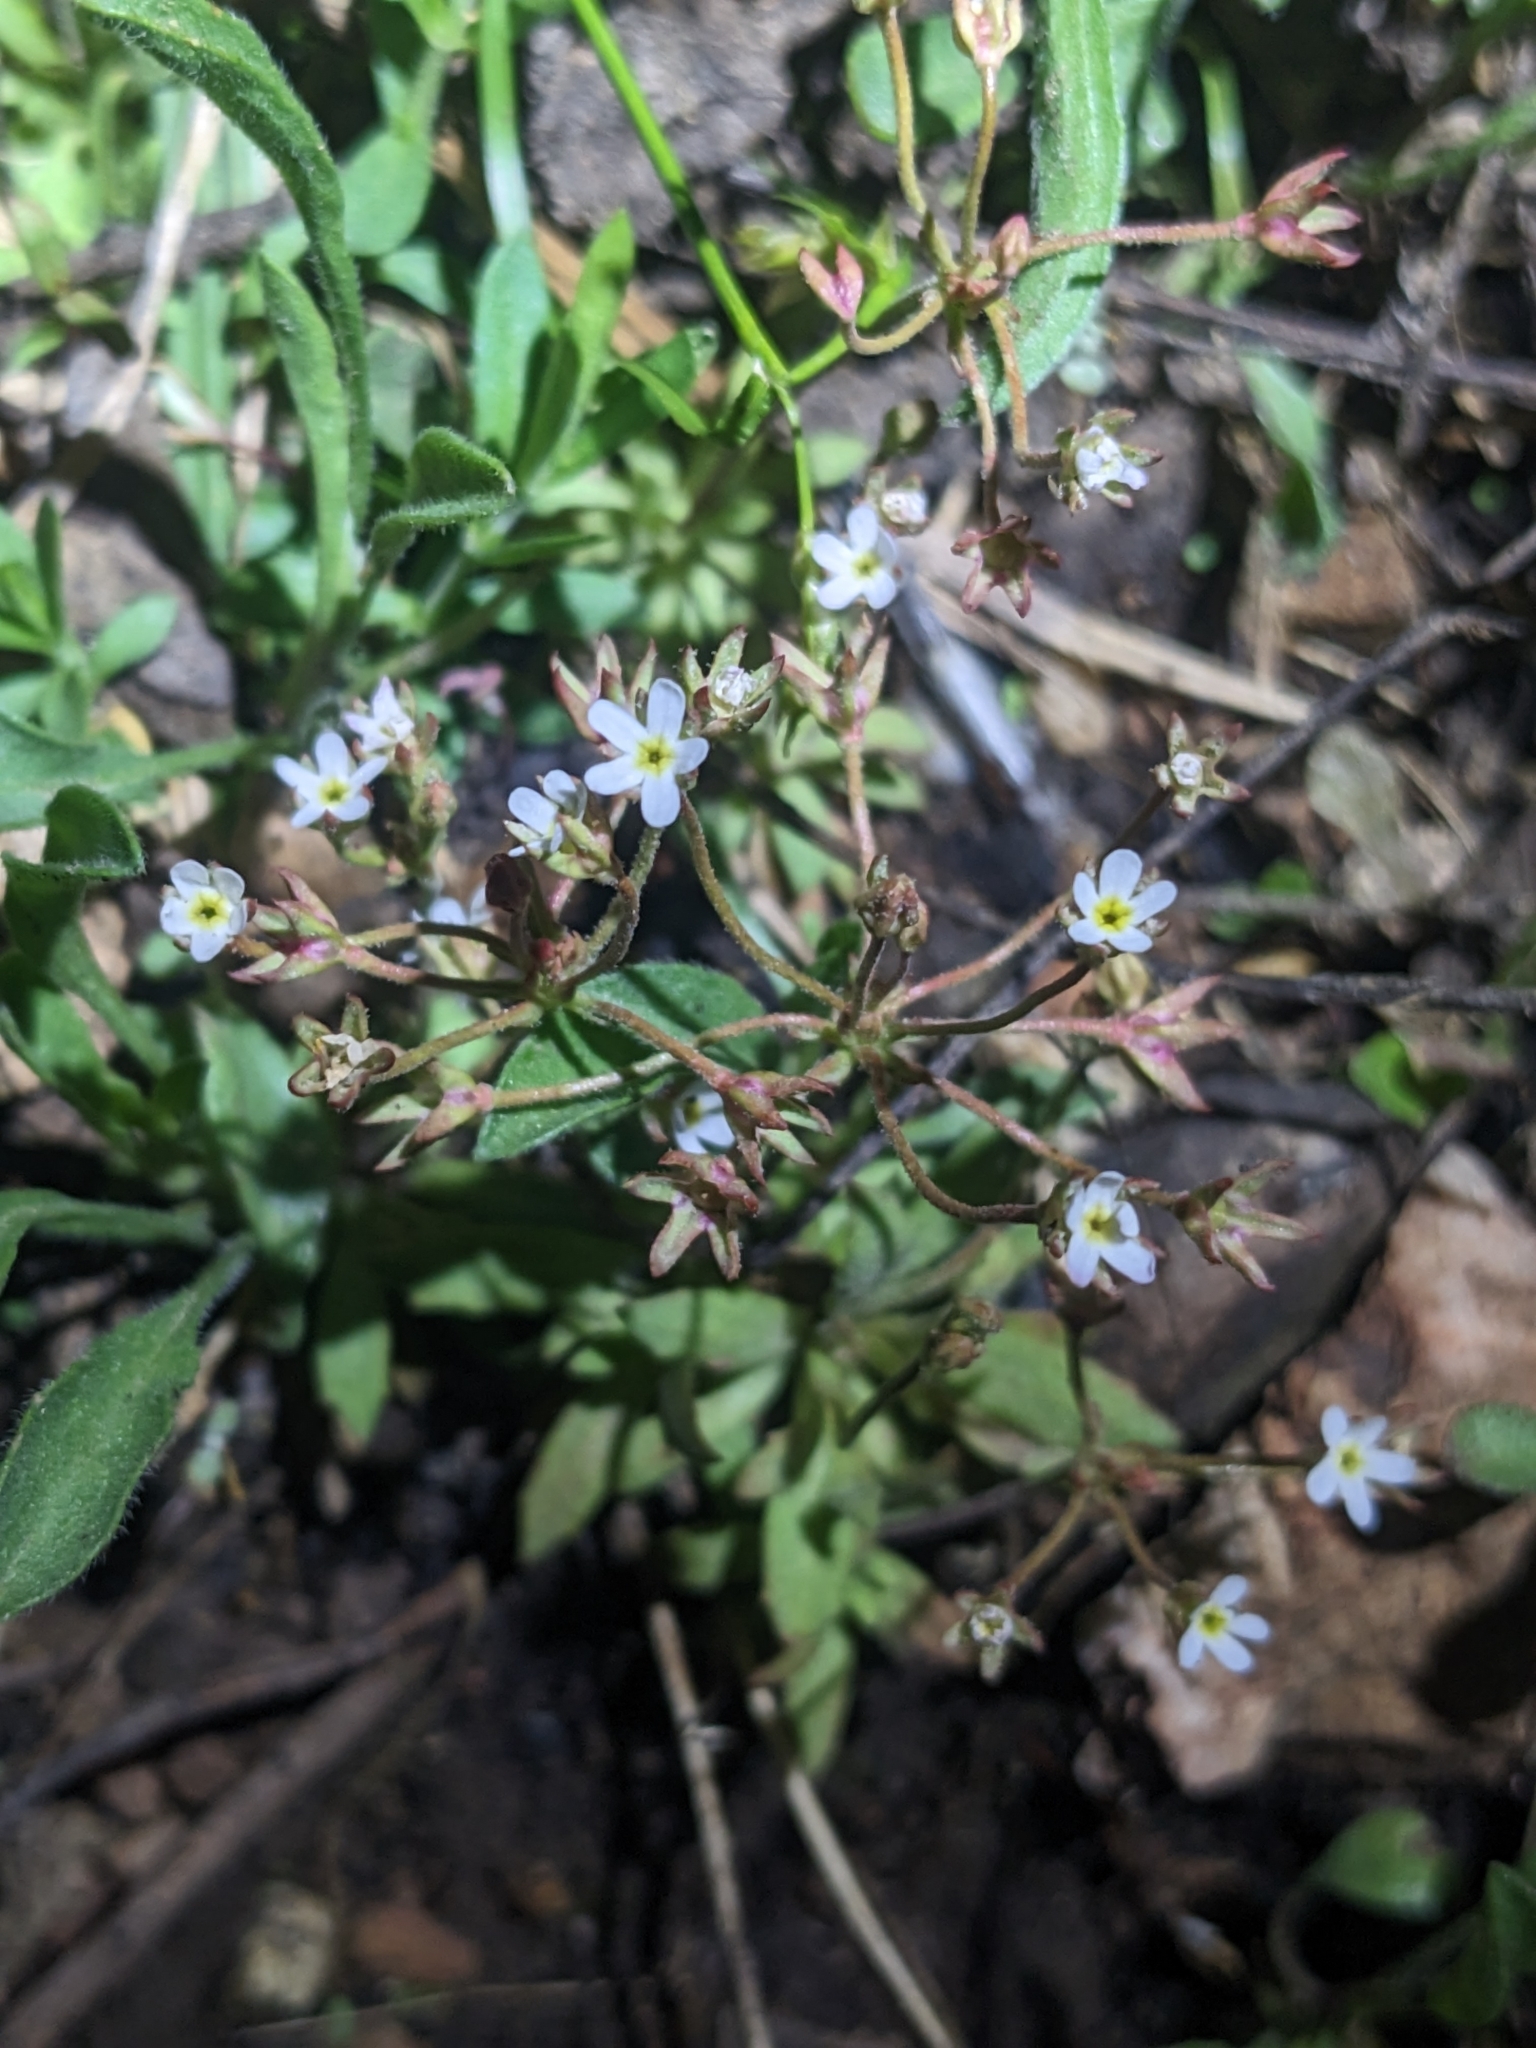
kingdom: Plantae
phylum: Tracheophyta
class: Magnoliopsida
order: Ericales
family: Primulaceae
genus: Androsace
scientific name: Androsace septentrionalis
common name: Hairy northern fairy-candelabra
